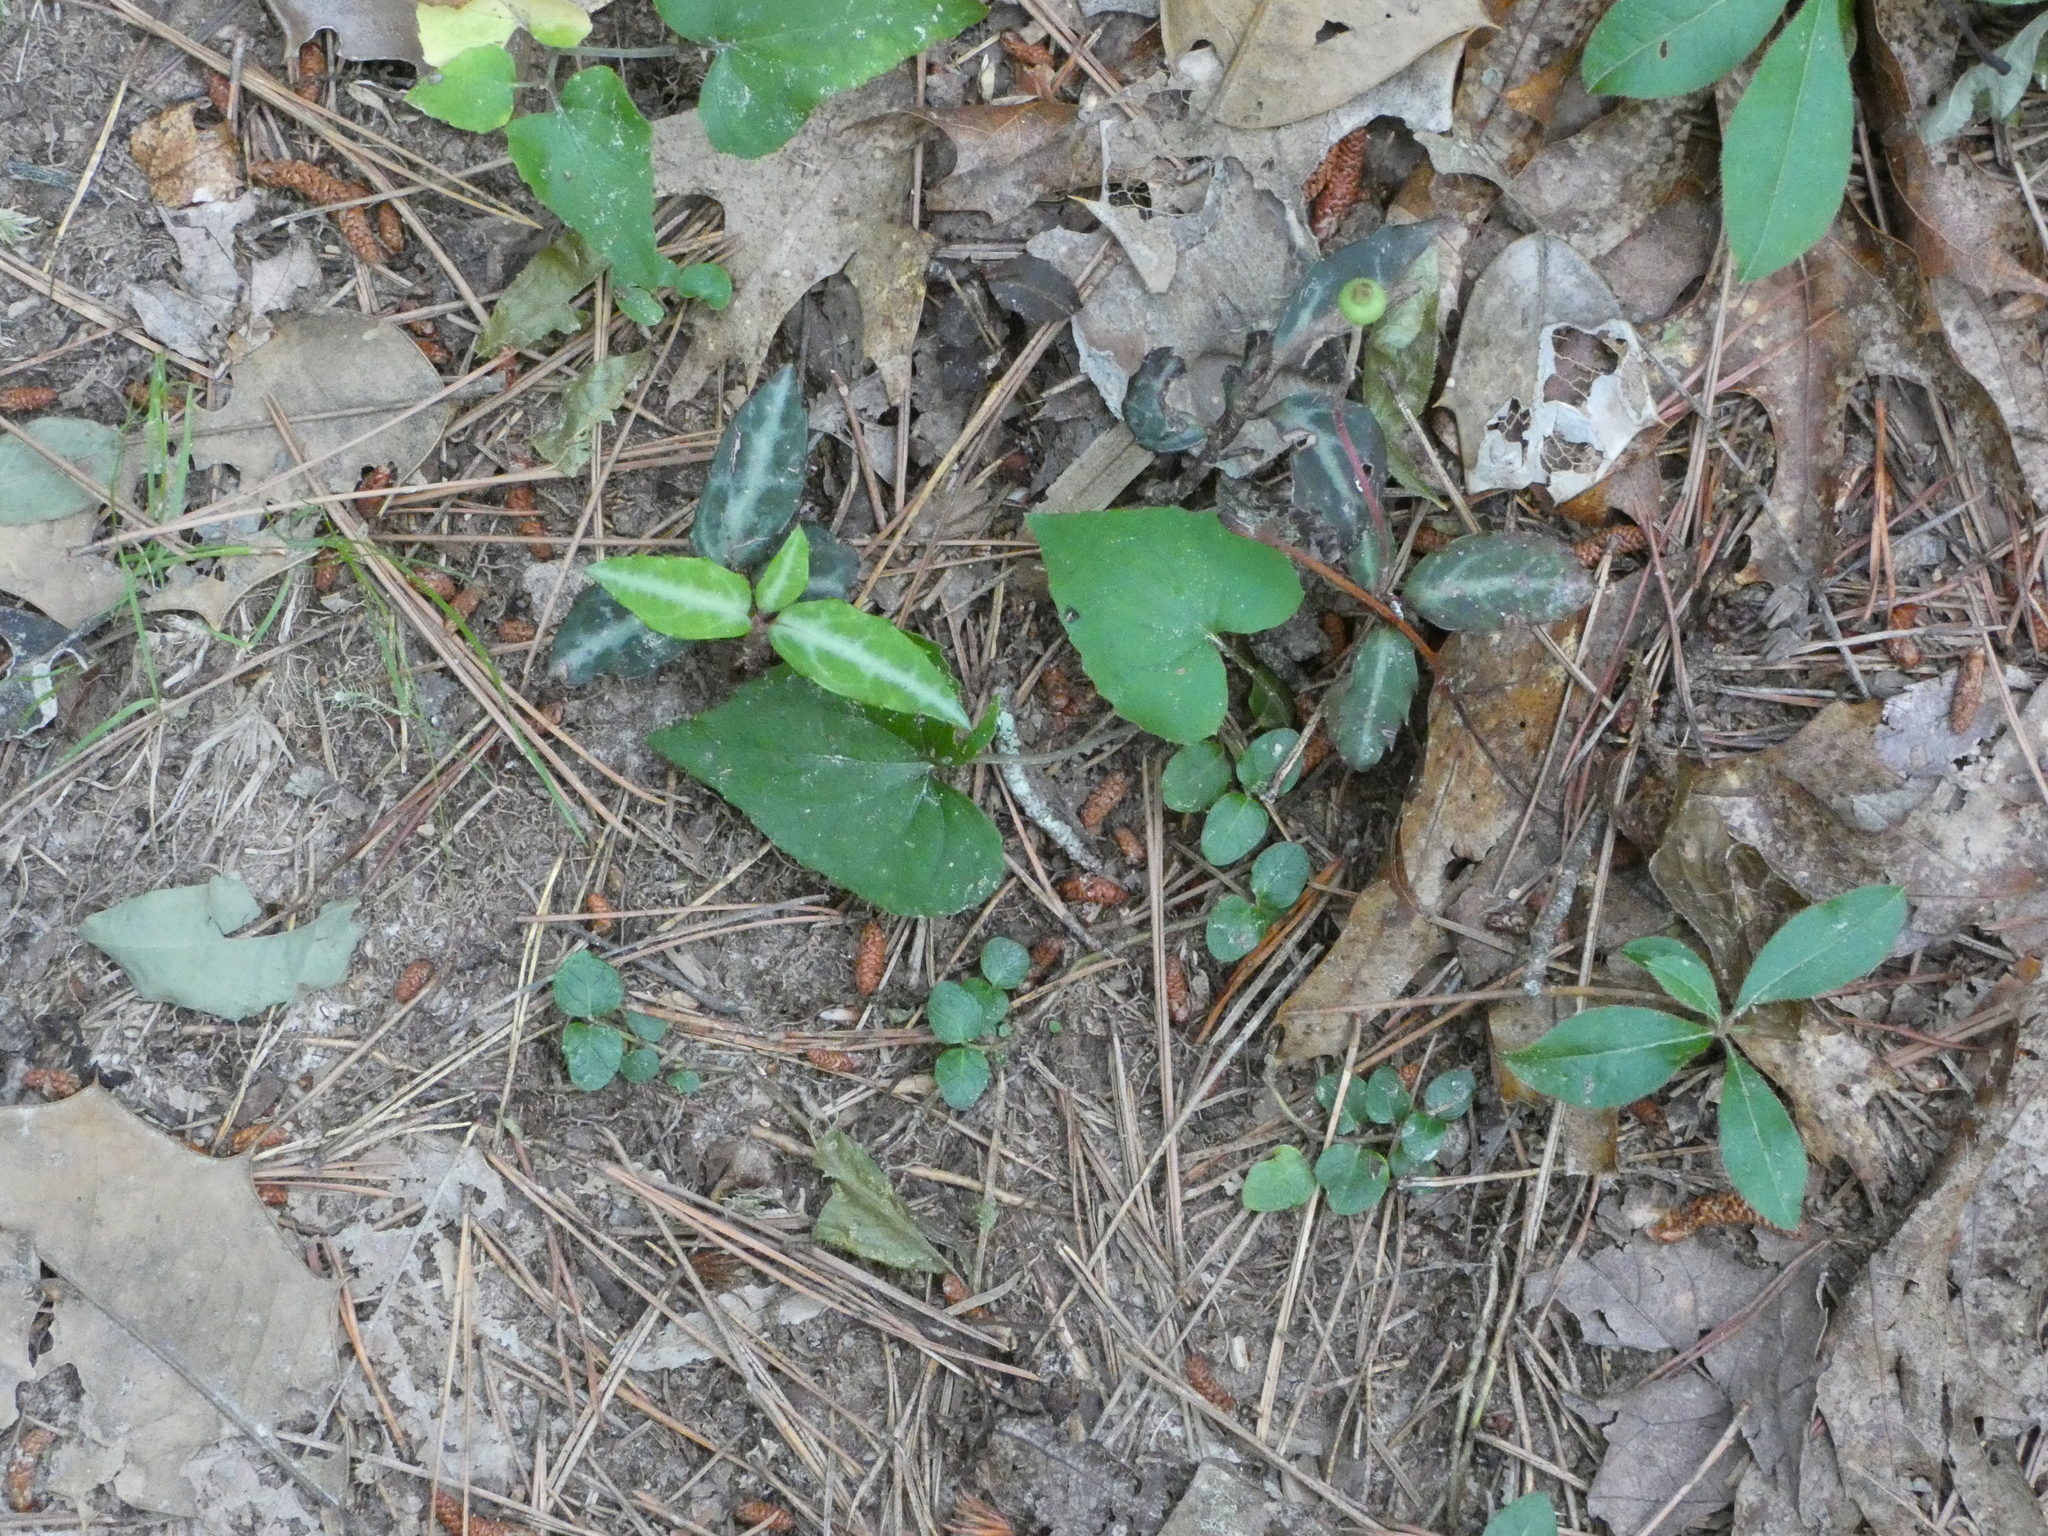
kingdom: Plantae
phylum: Tracheophyta
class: Magnoliopsida
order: Ericales
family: Ericaceae
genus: Chimaphila
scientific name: Chimaphila maculata
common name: Spotted pipsissewa
